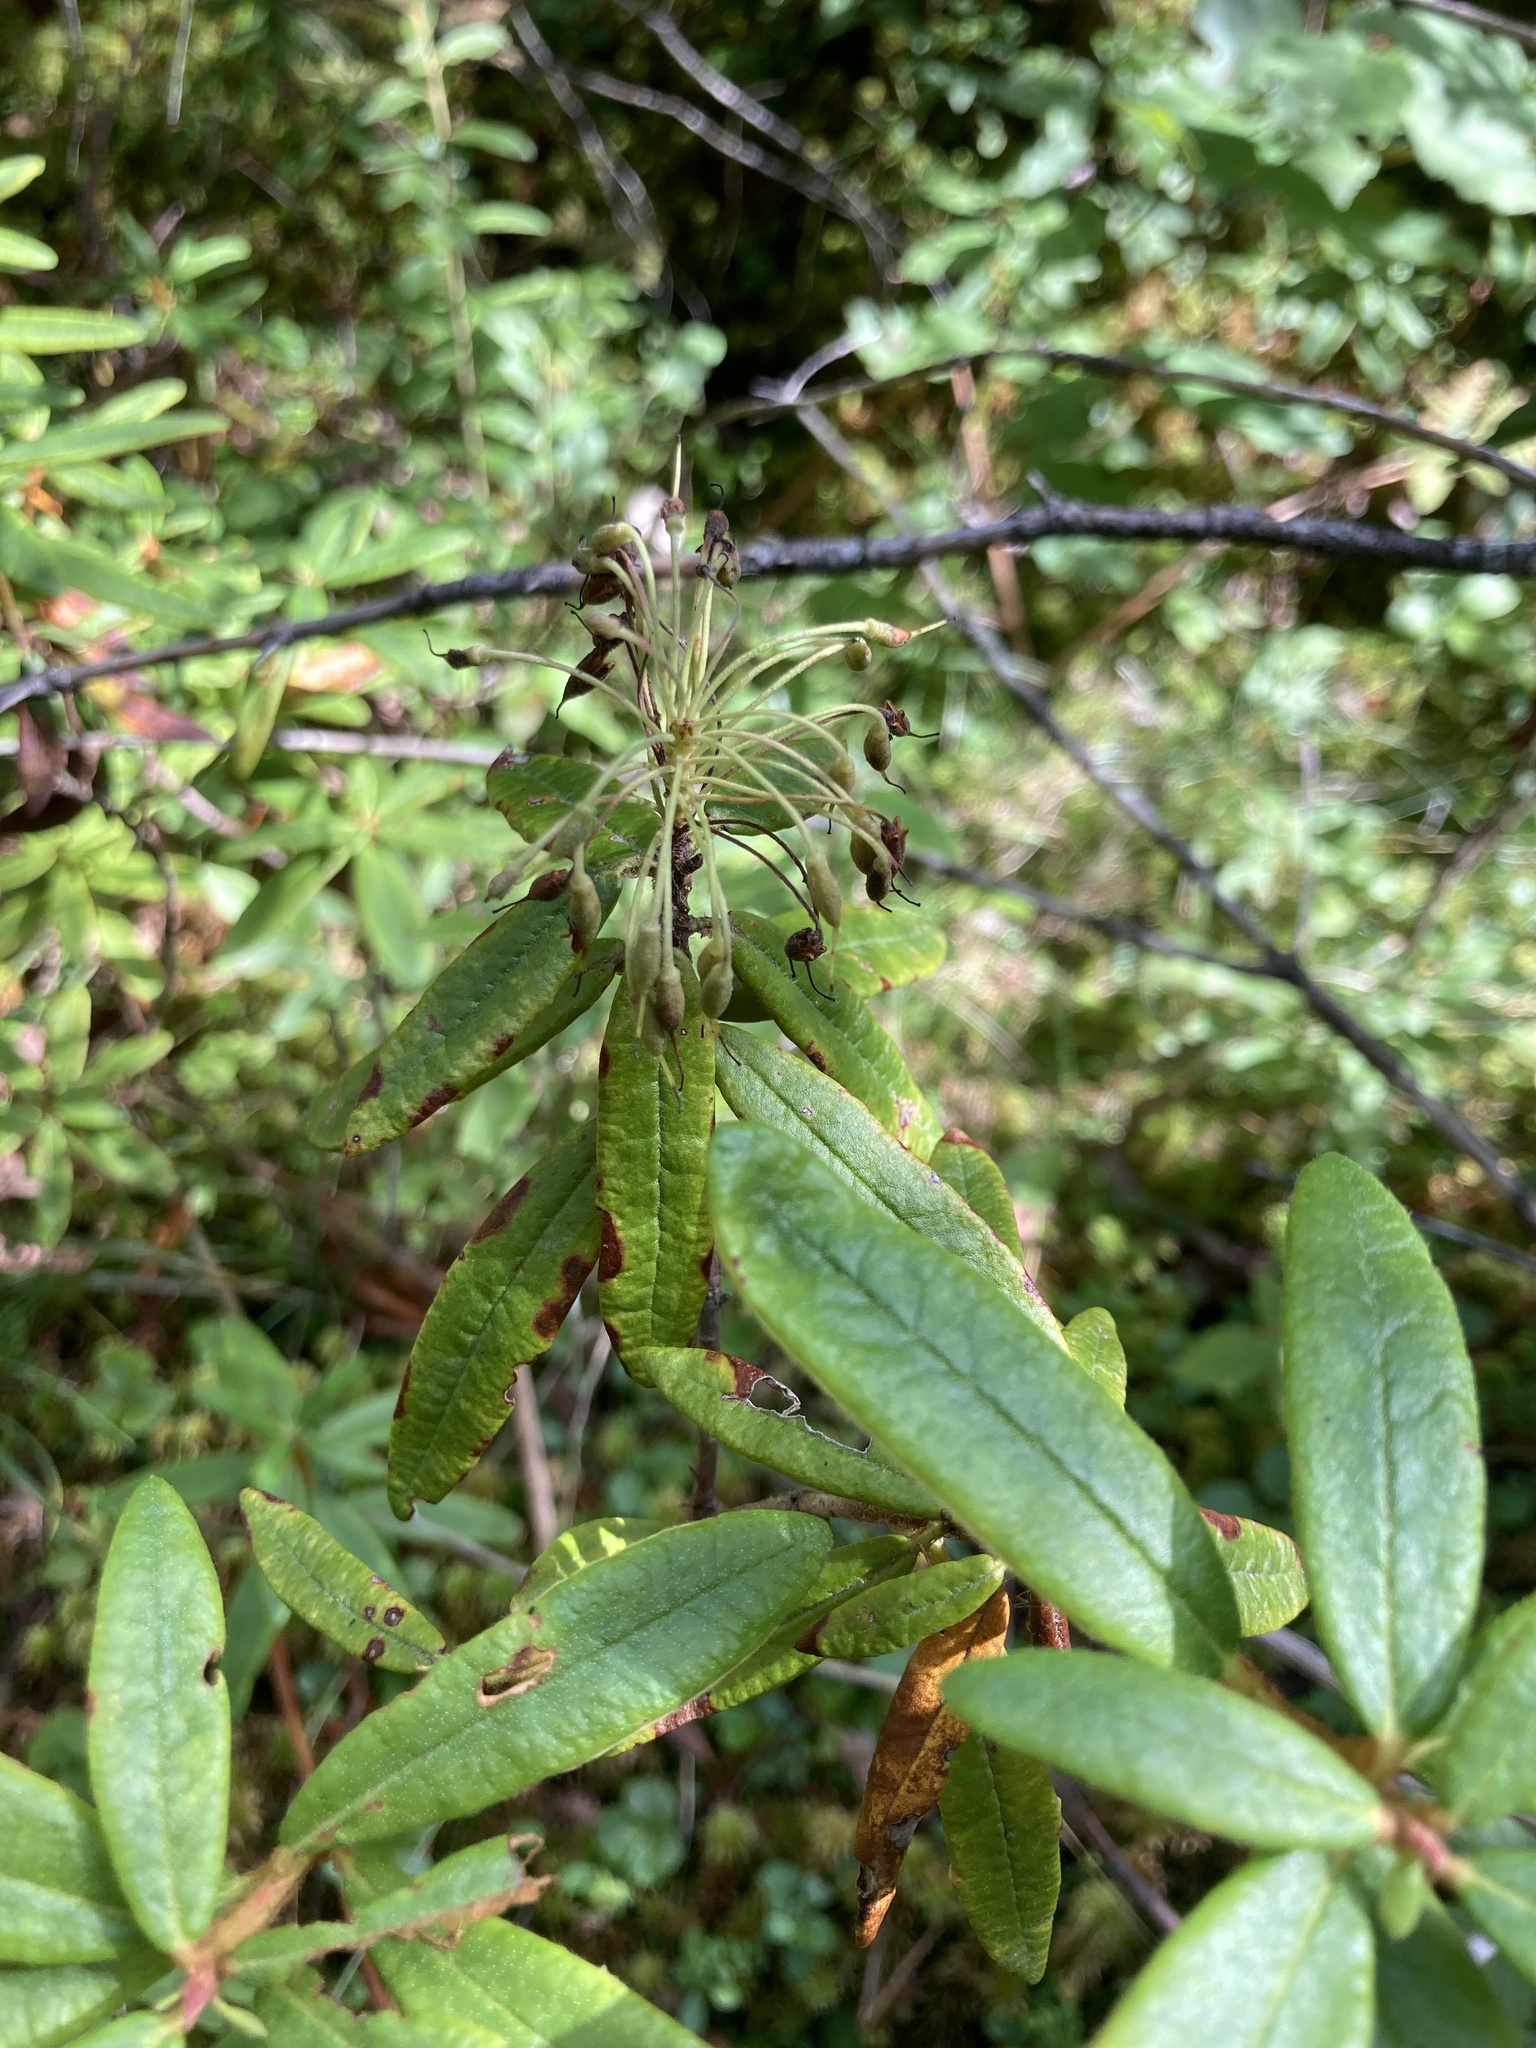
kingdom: Plantae
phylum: Tracheophyta
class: Magnoliopsida
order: Ericales
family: Ericaceae
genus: Rhododendron
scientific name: Rhododendron groenlandicum
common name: Bog labrador tea
